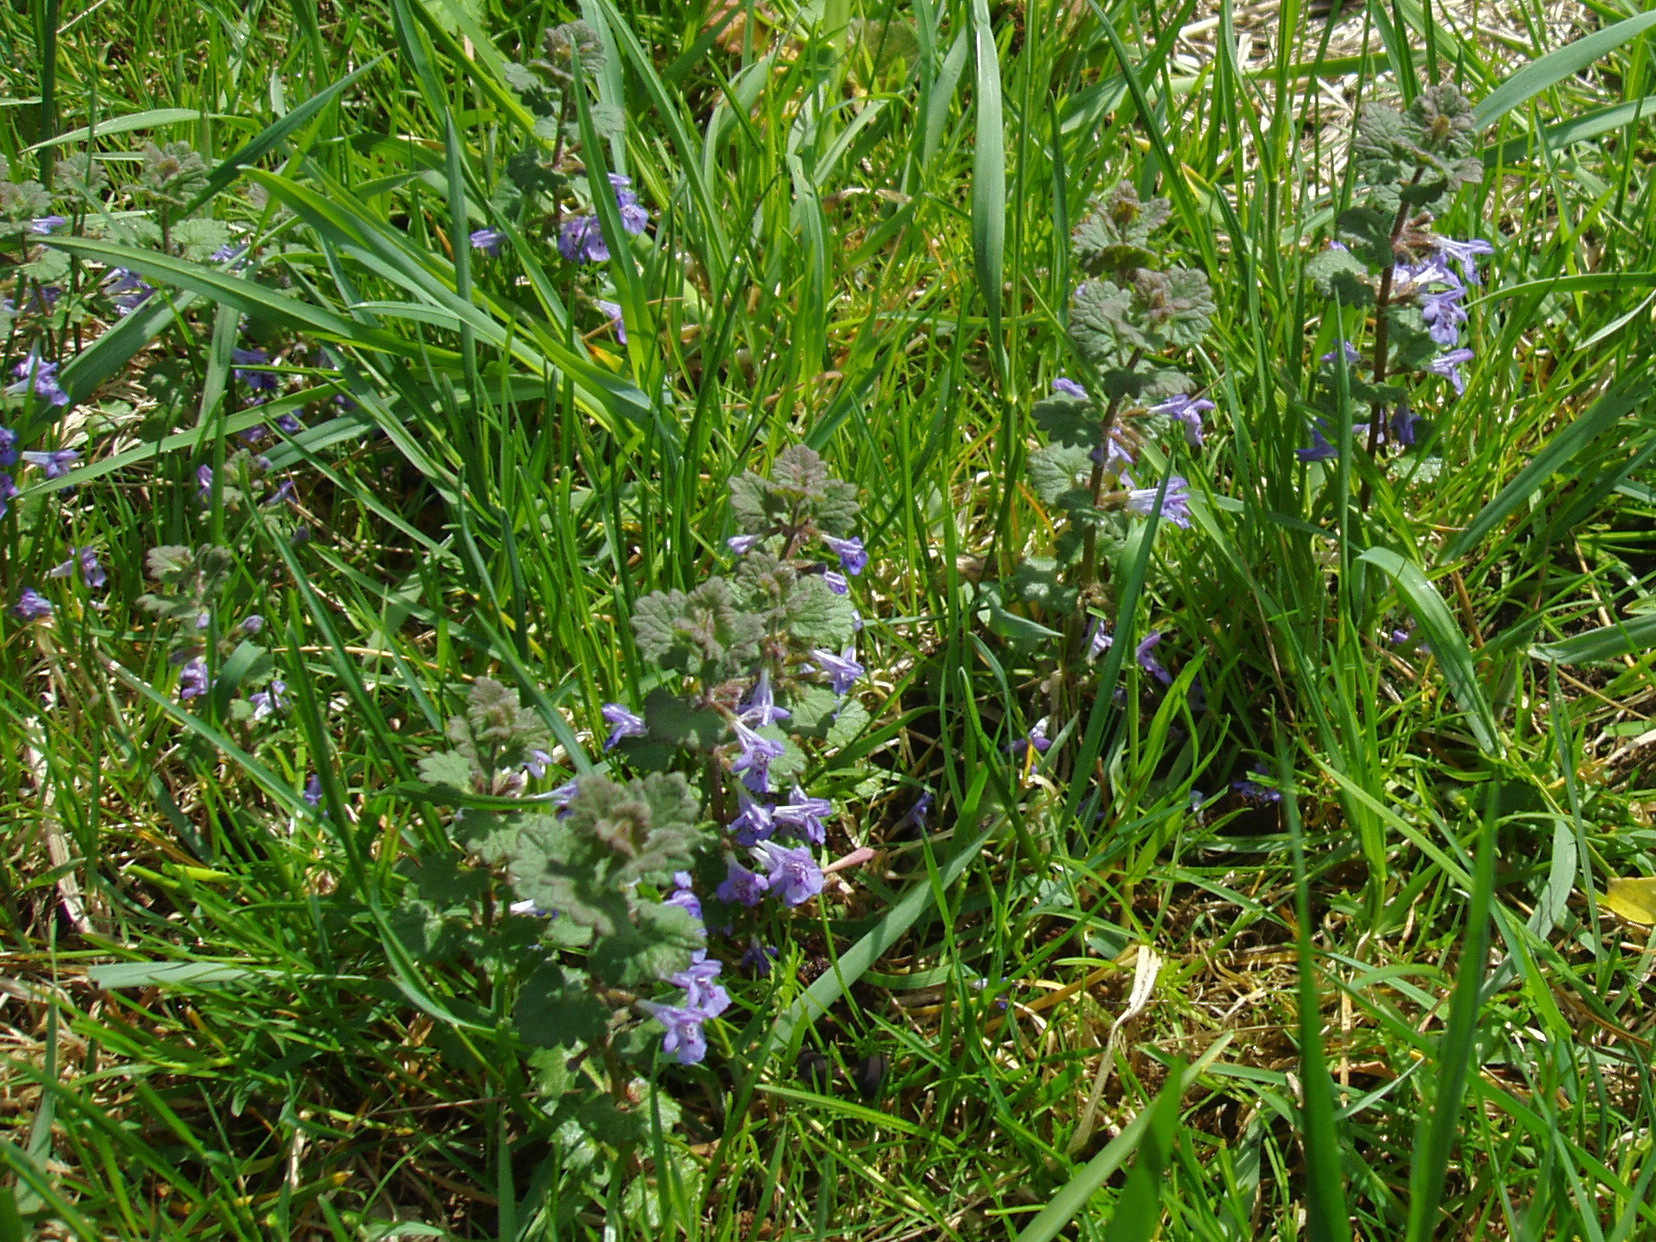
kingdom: Plantae
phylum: Tracheophyta
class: Magnoliopsida
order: Lamiales
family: Lamiaceae
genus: Glechoma
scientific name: Glechoma hederacea
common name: Ground ivy
